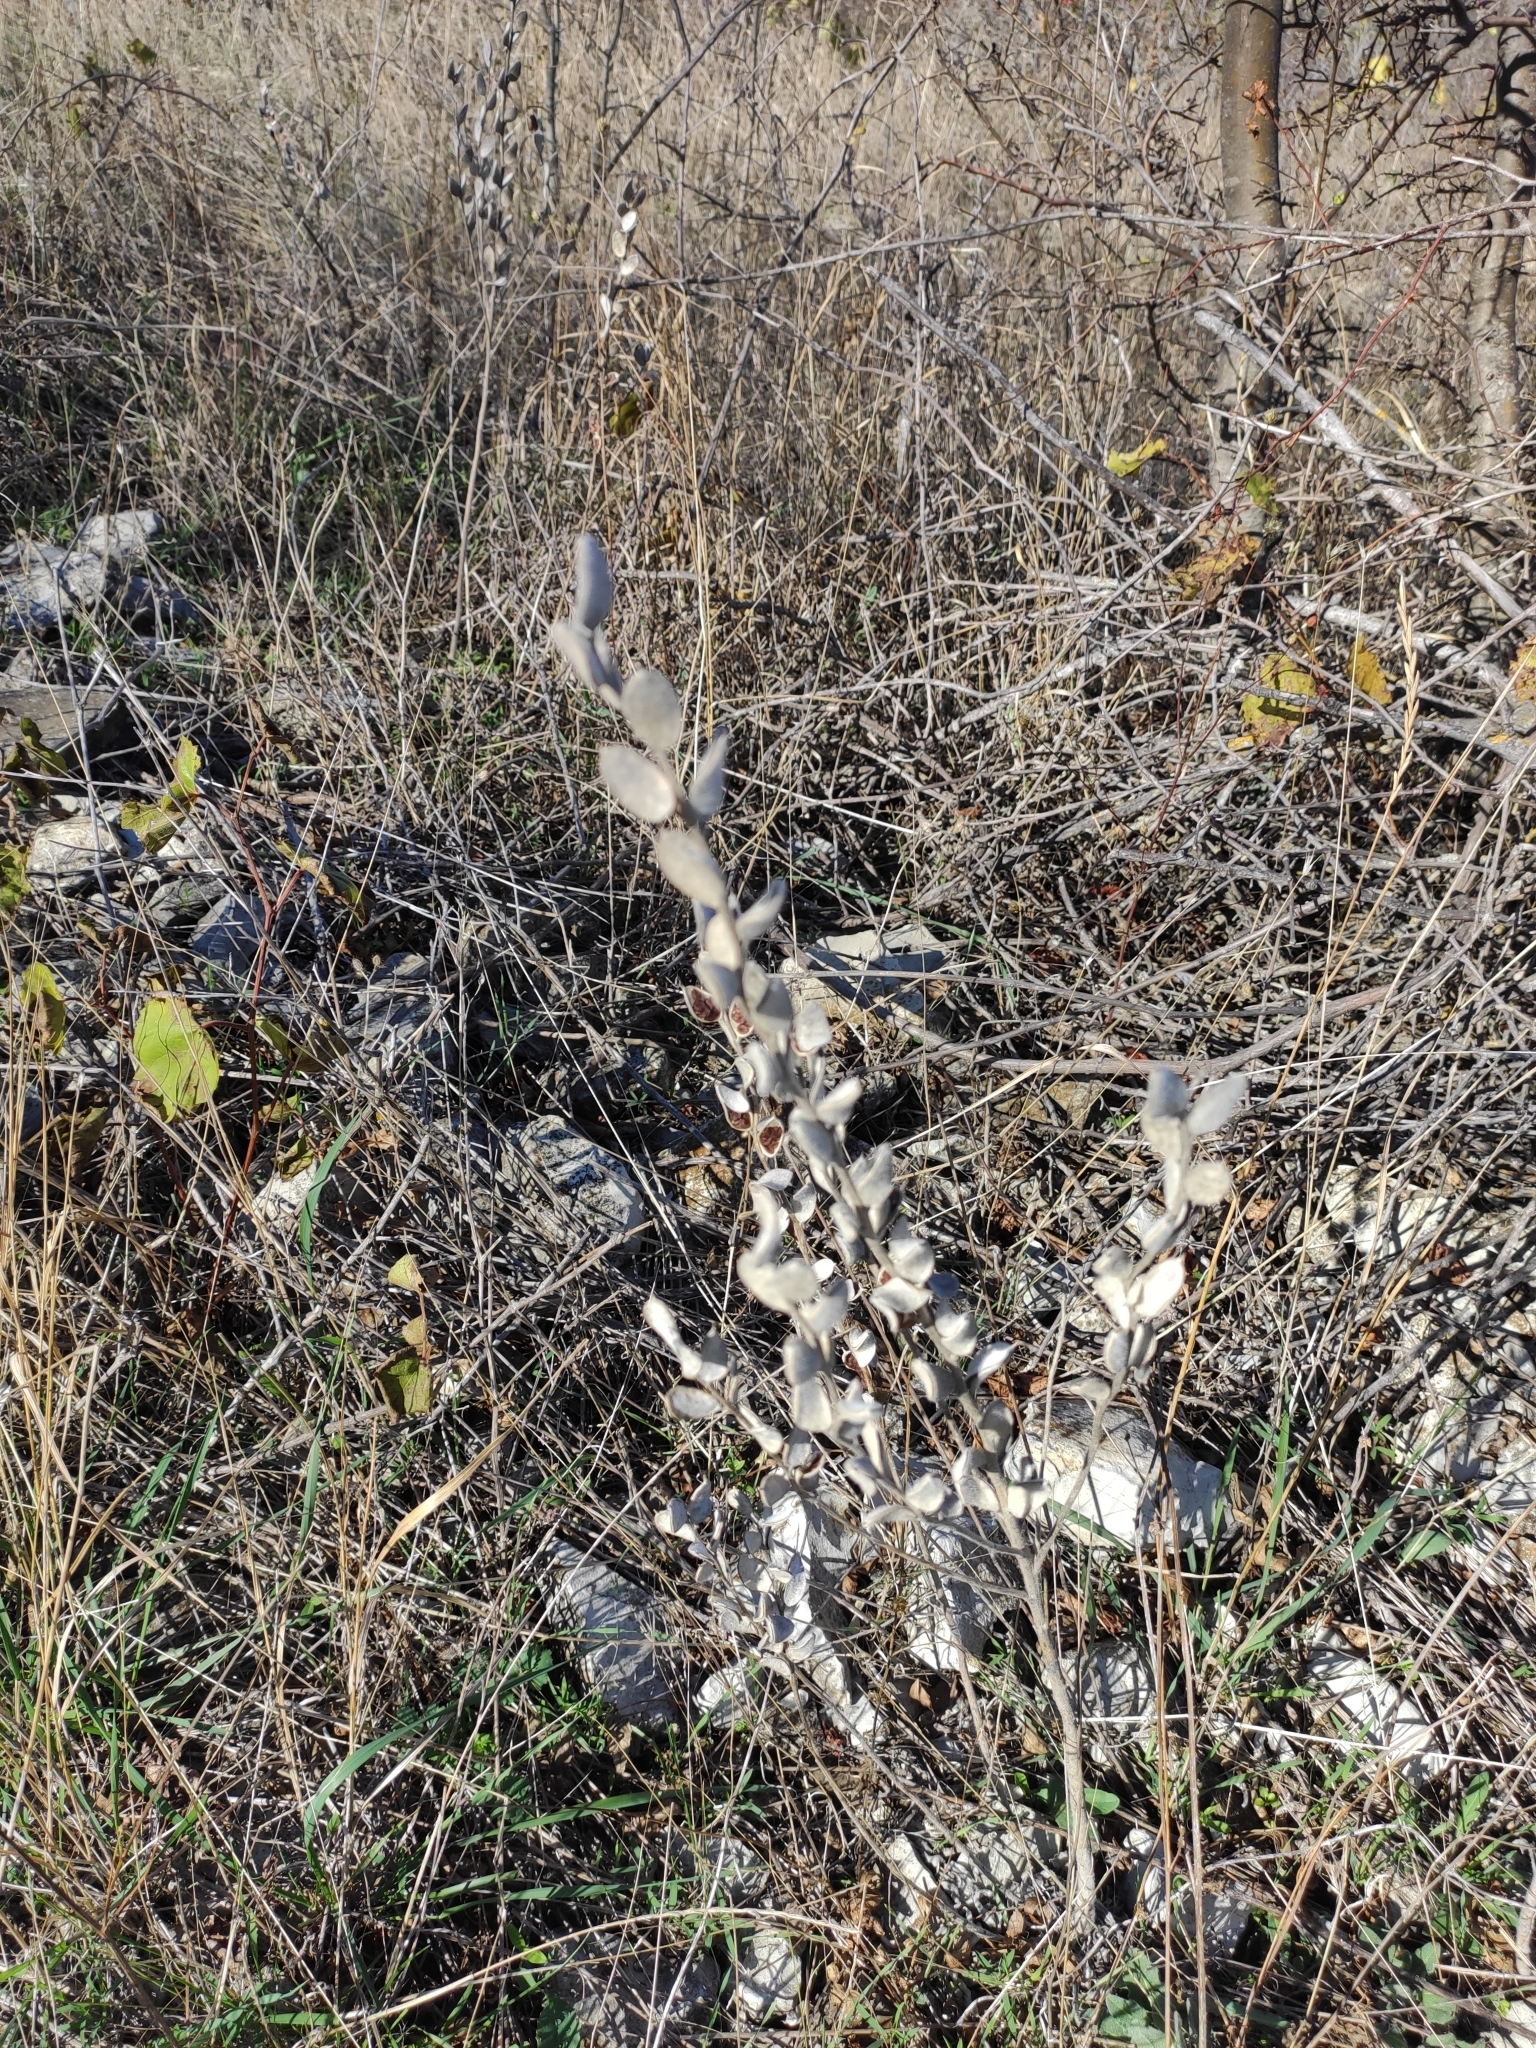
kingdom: Plantae
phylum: Tracheophyta
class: Magnoliopsida
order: Brassicales
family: Brassicaceae
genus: Fibigia
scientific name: Fibigia clypeata
